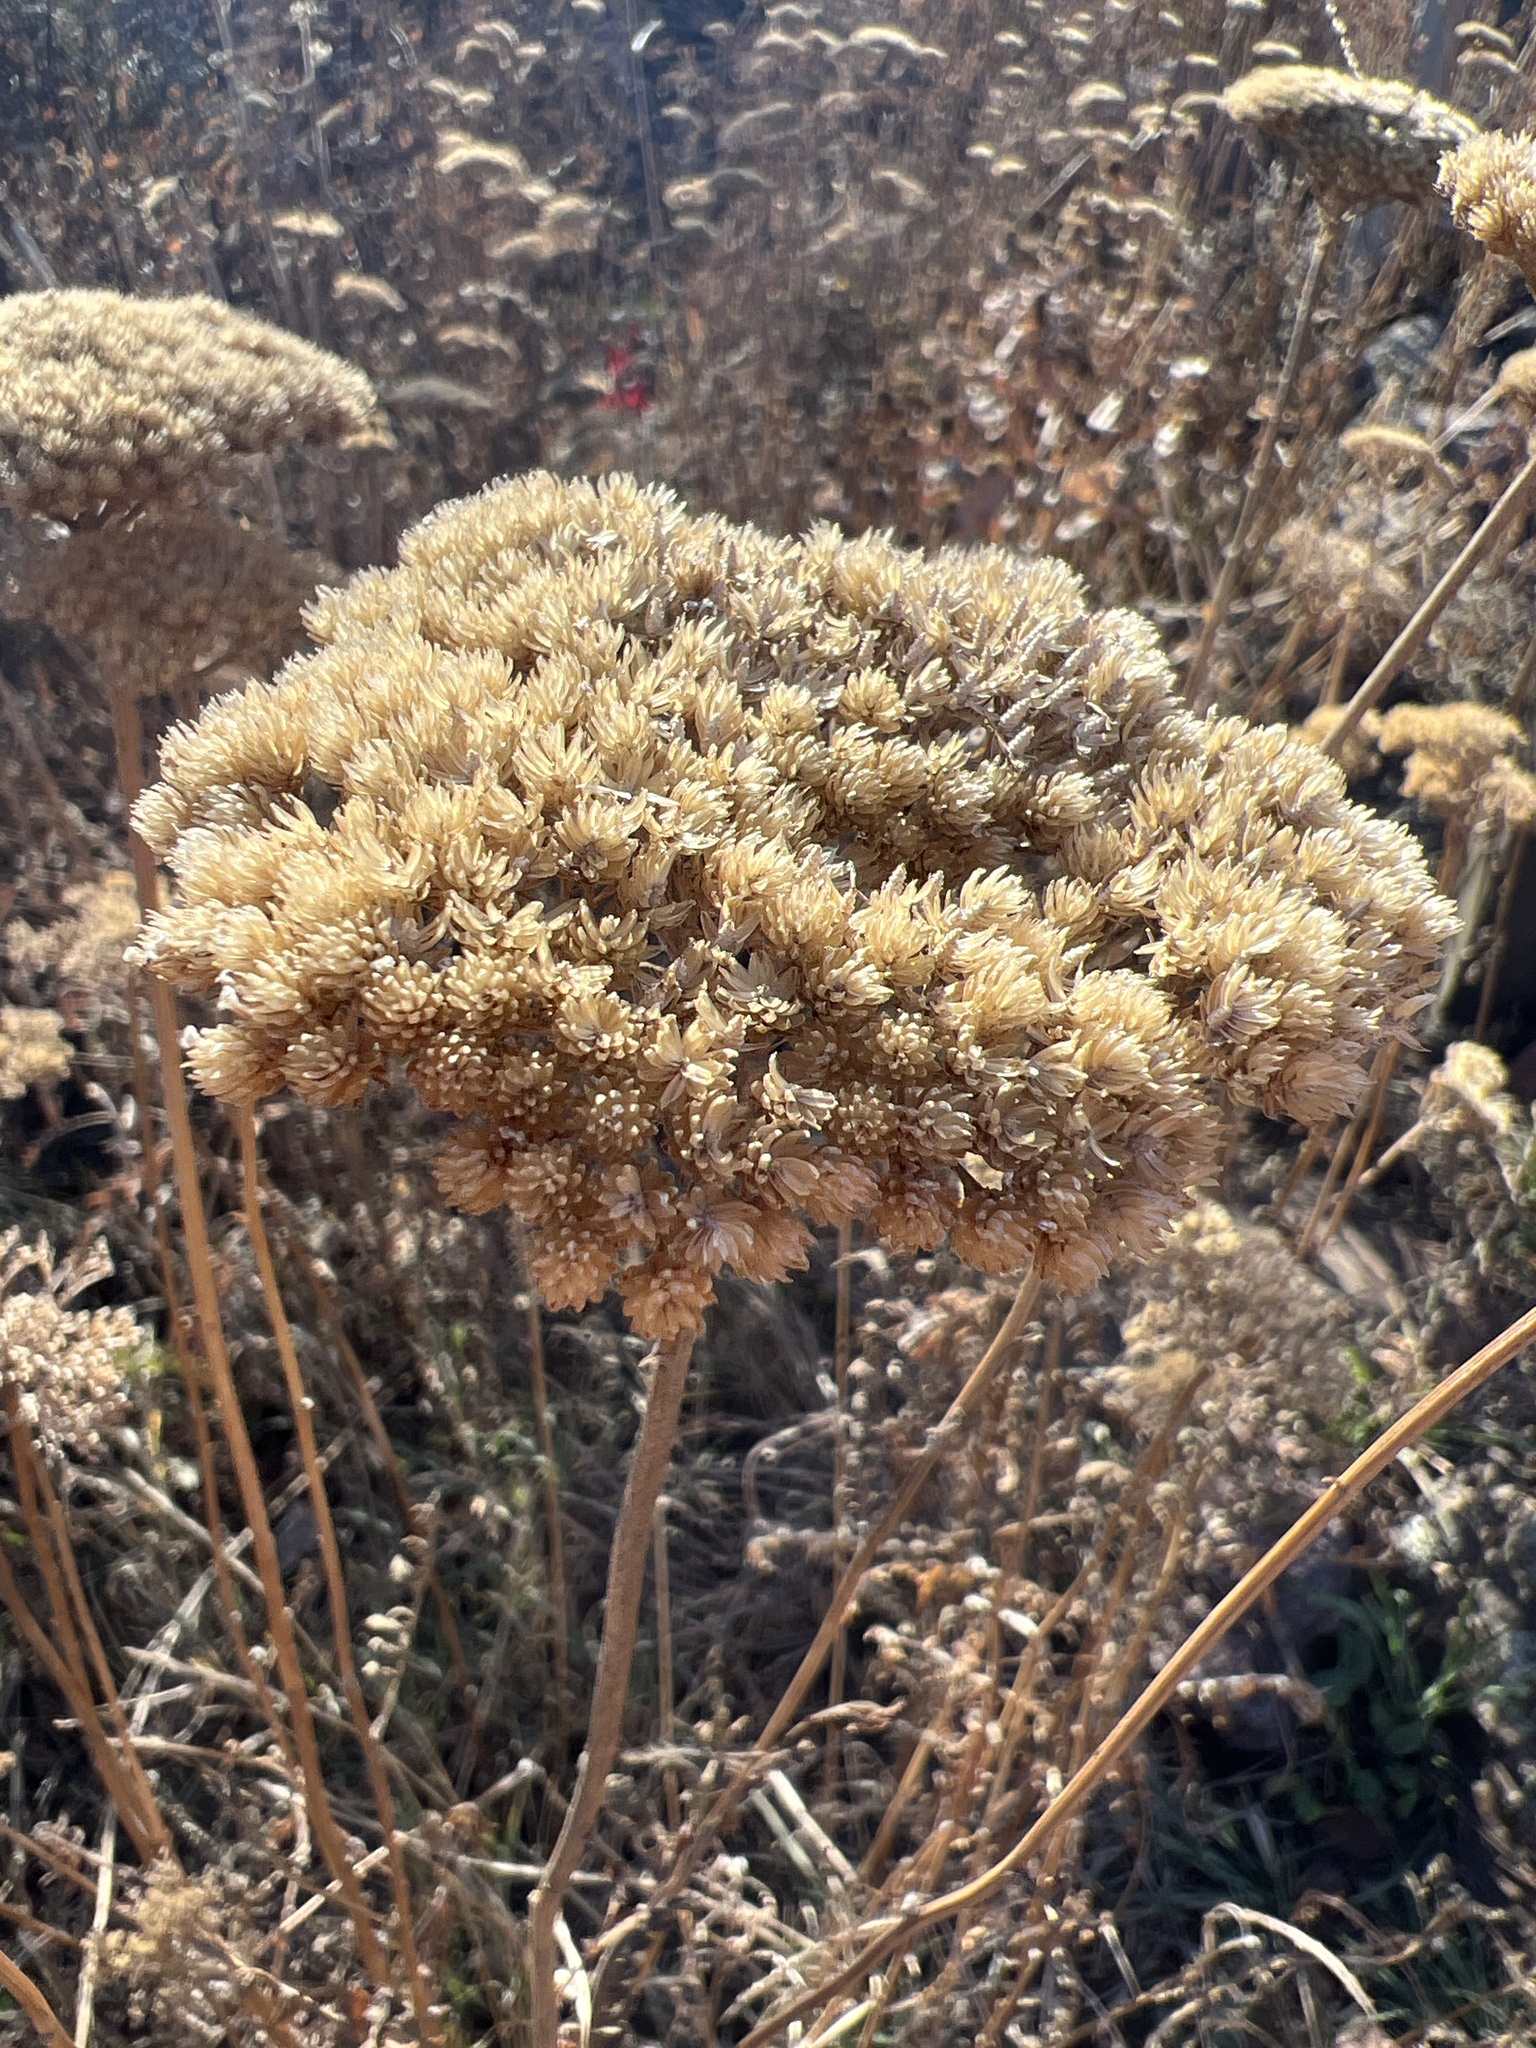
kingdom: Plantae
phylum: Tracheophyta
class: Magnoliopsida
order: Asterales
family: Asteraceae
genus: Achillea
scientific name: Achillea filipendulina
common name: Fernleaf yarrow
